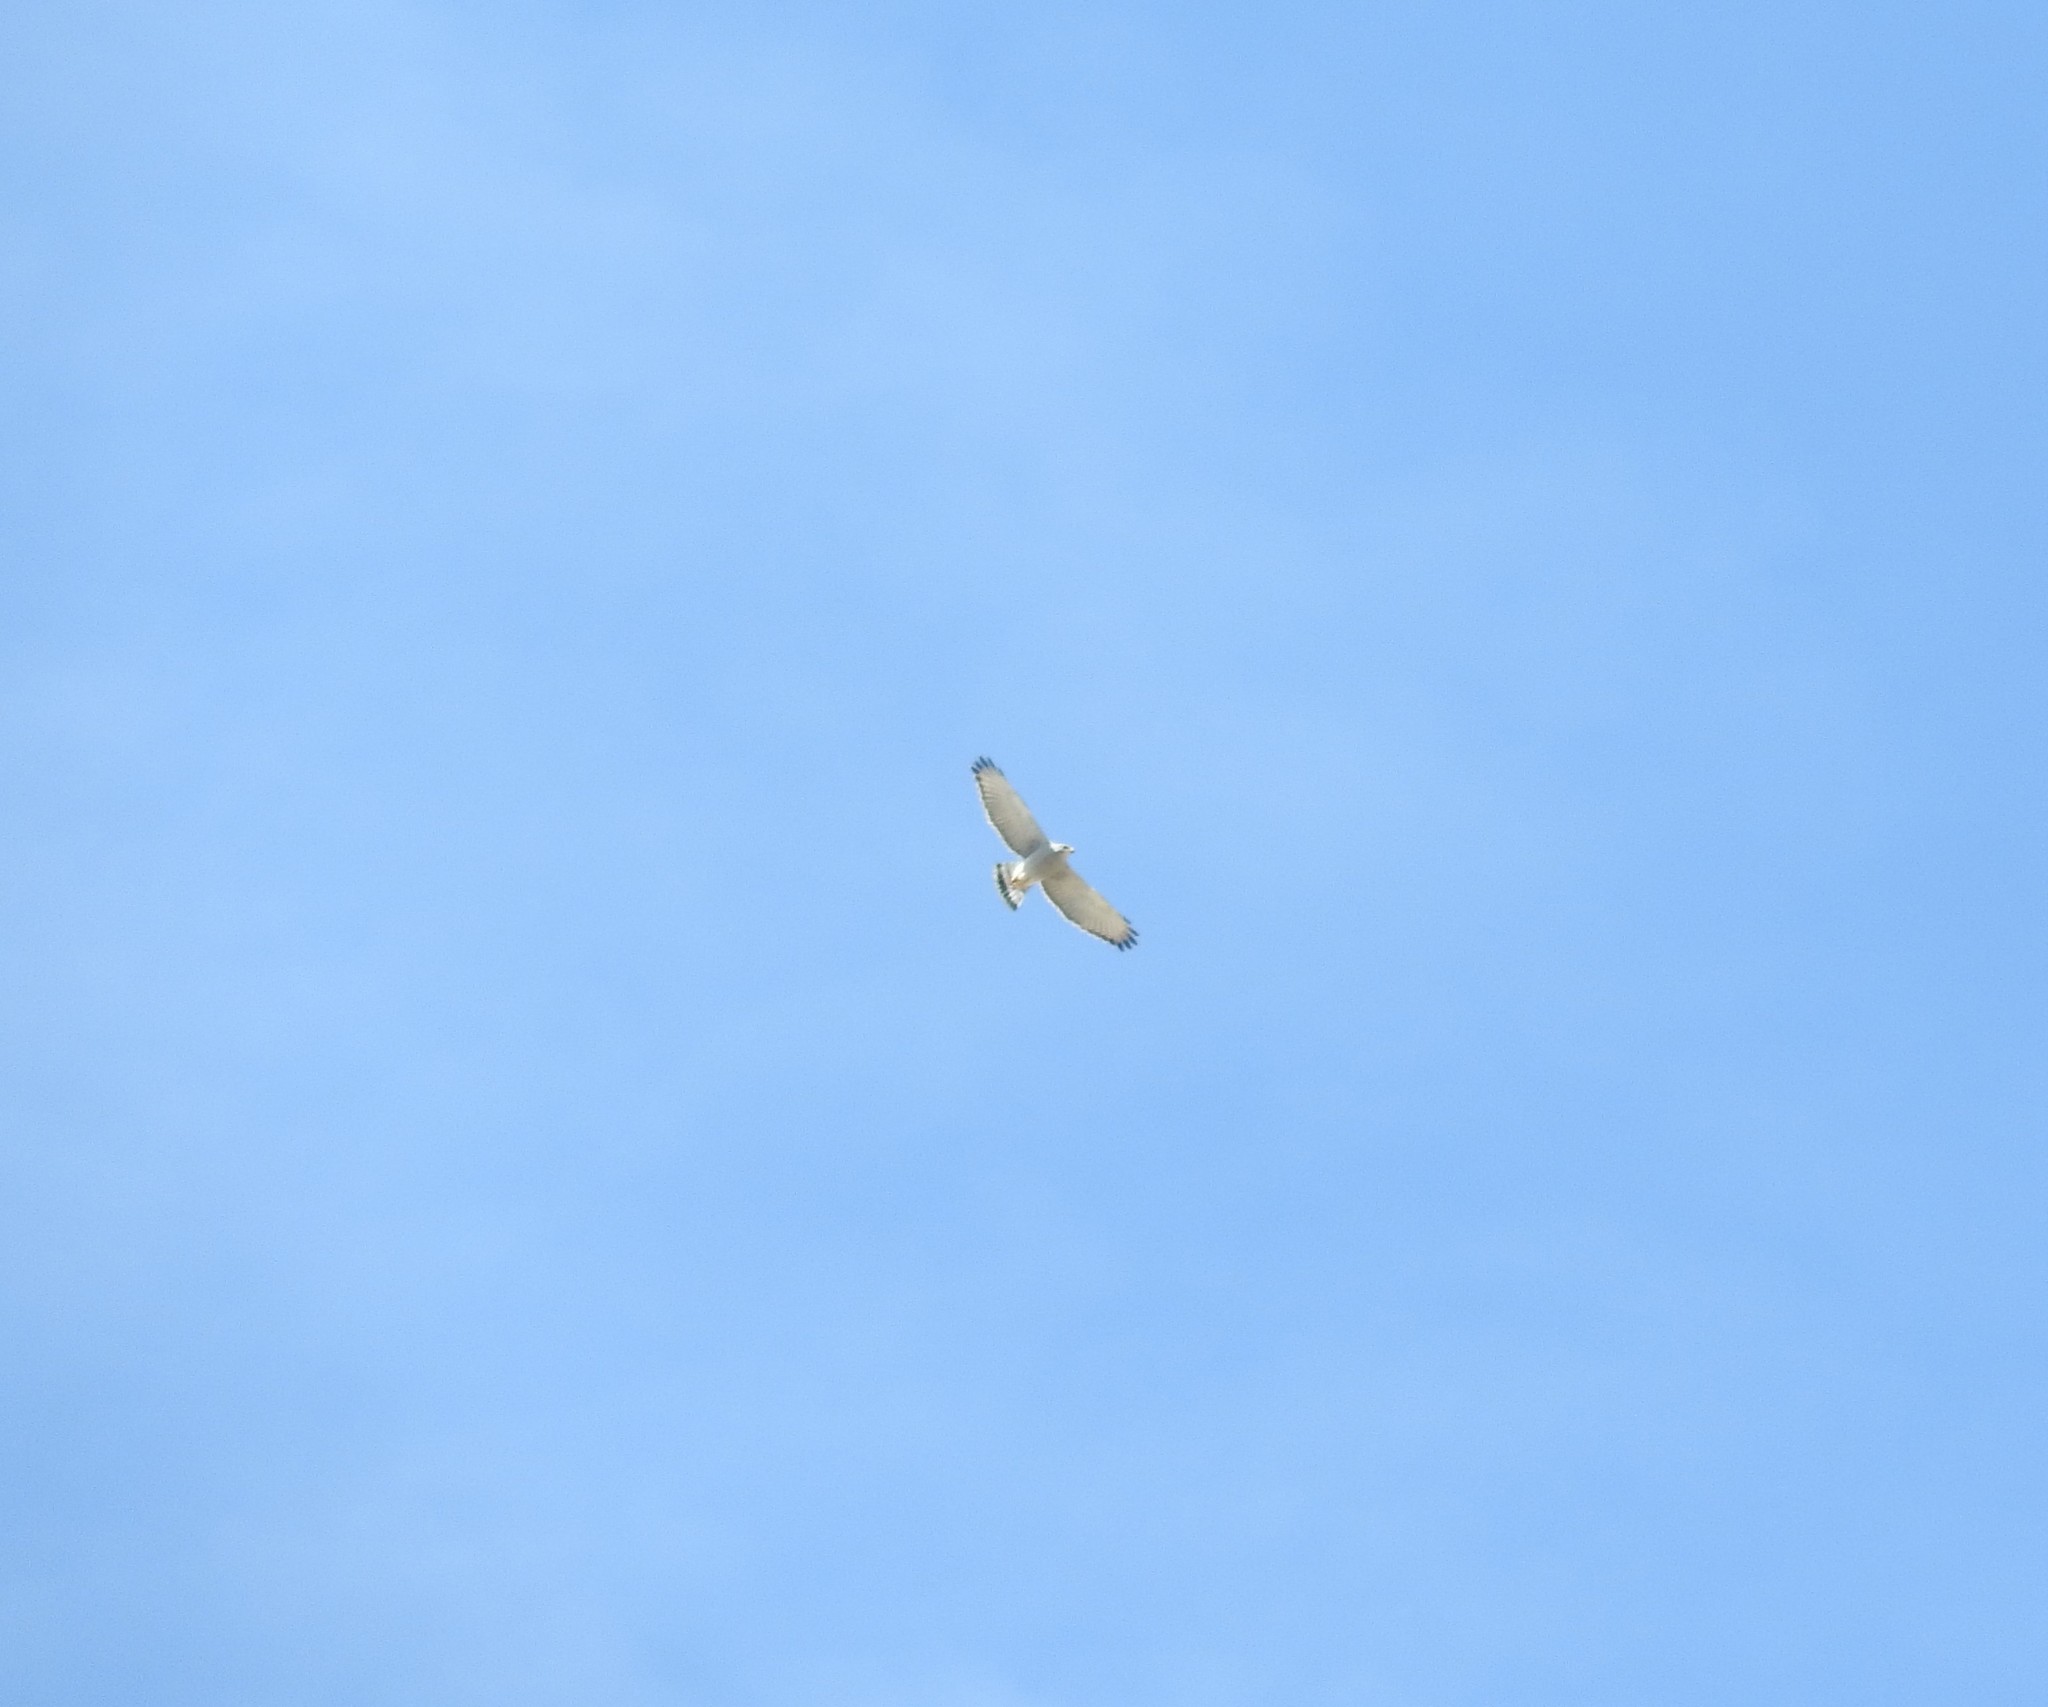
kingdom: Animalia
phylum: Chordata
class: Aves
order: Accipitriformes
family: Accipitridae
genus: Buteo
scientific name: Buteo nitidus
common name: Grey-lined hawk
